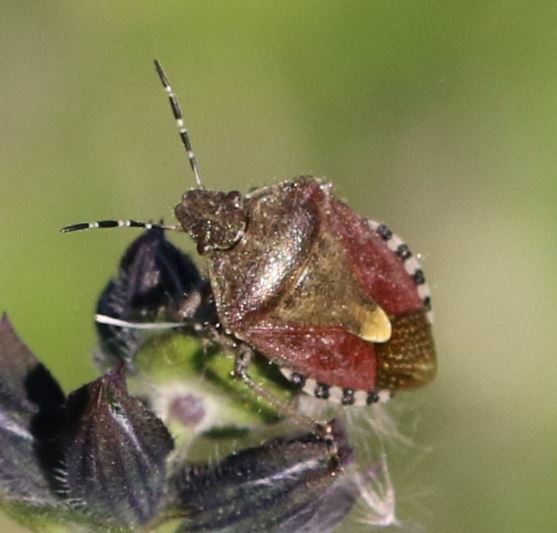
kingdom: Animalia
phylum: Arthropoda
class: Insecta
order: Hemiptera
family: Pentatomidae
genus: Dolycoris
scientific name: Dolycoris baccarum
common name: Sloe bug
